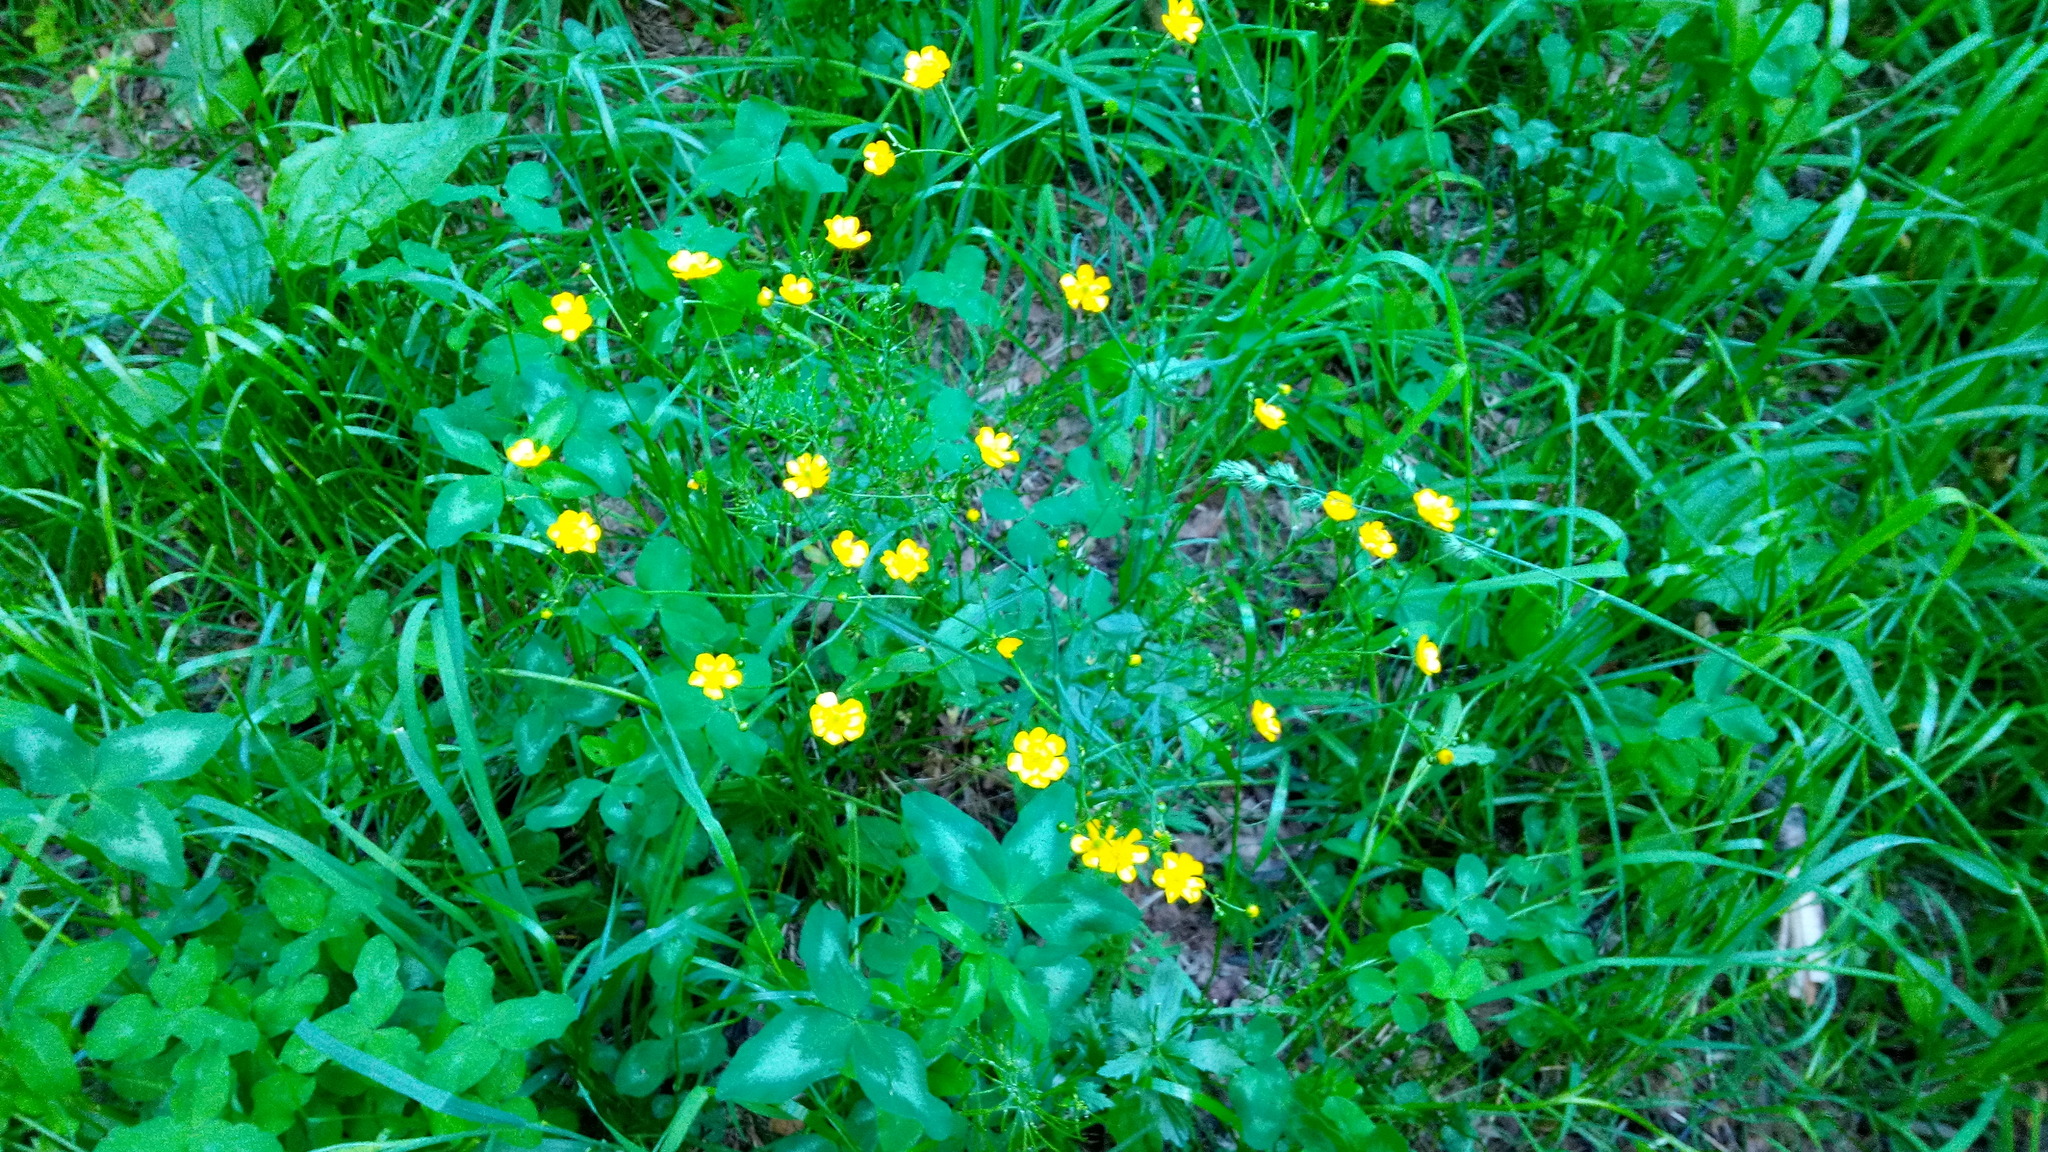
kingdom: Plantae
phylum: Tracheophyta
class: Magnoliopsida
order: Ranunculales
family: Ranunculaceae
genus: Ranunculus
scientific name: Ranunculus acris
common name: Meadow buttercup
